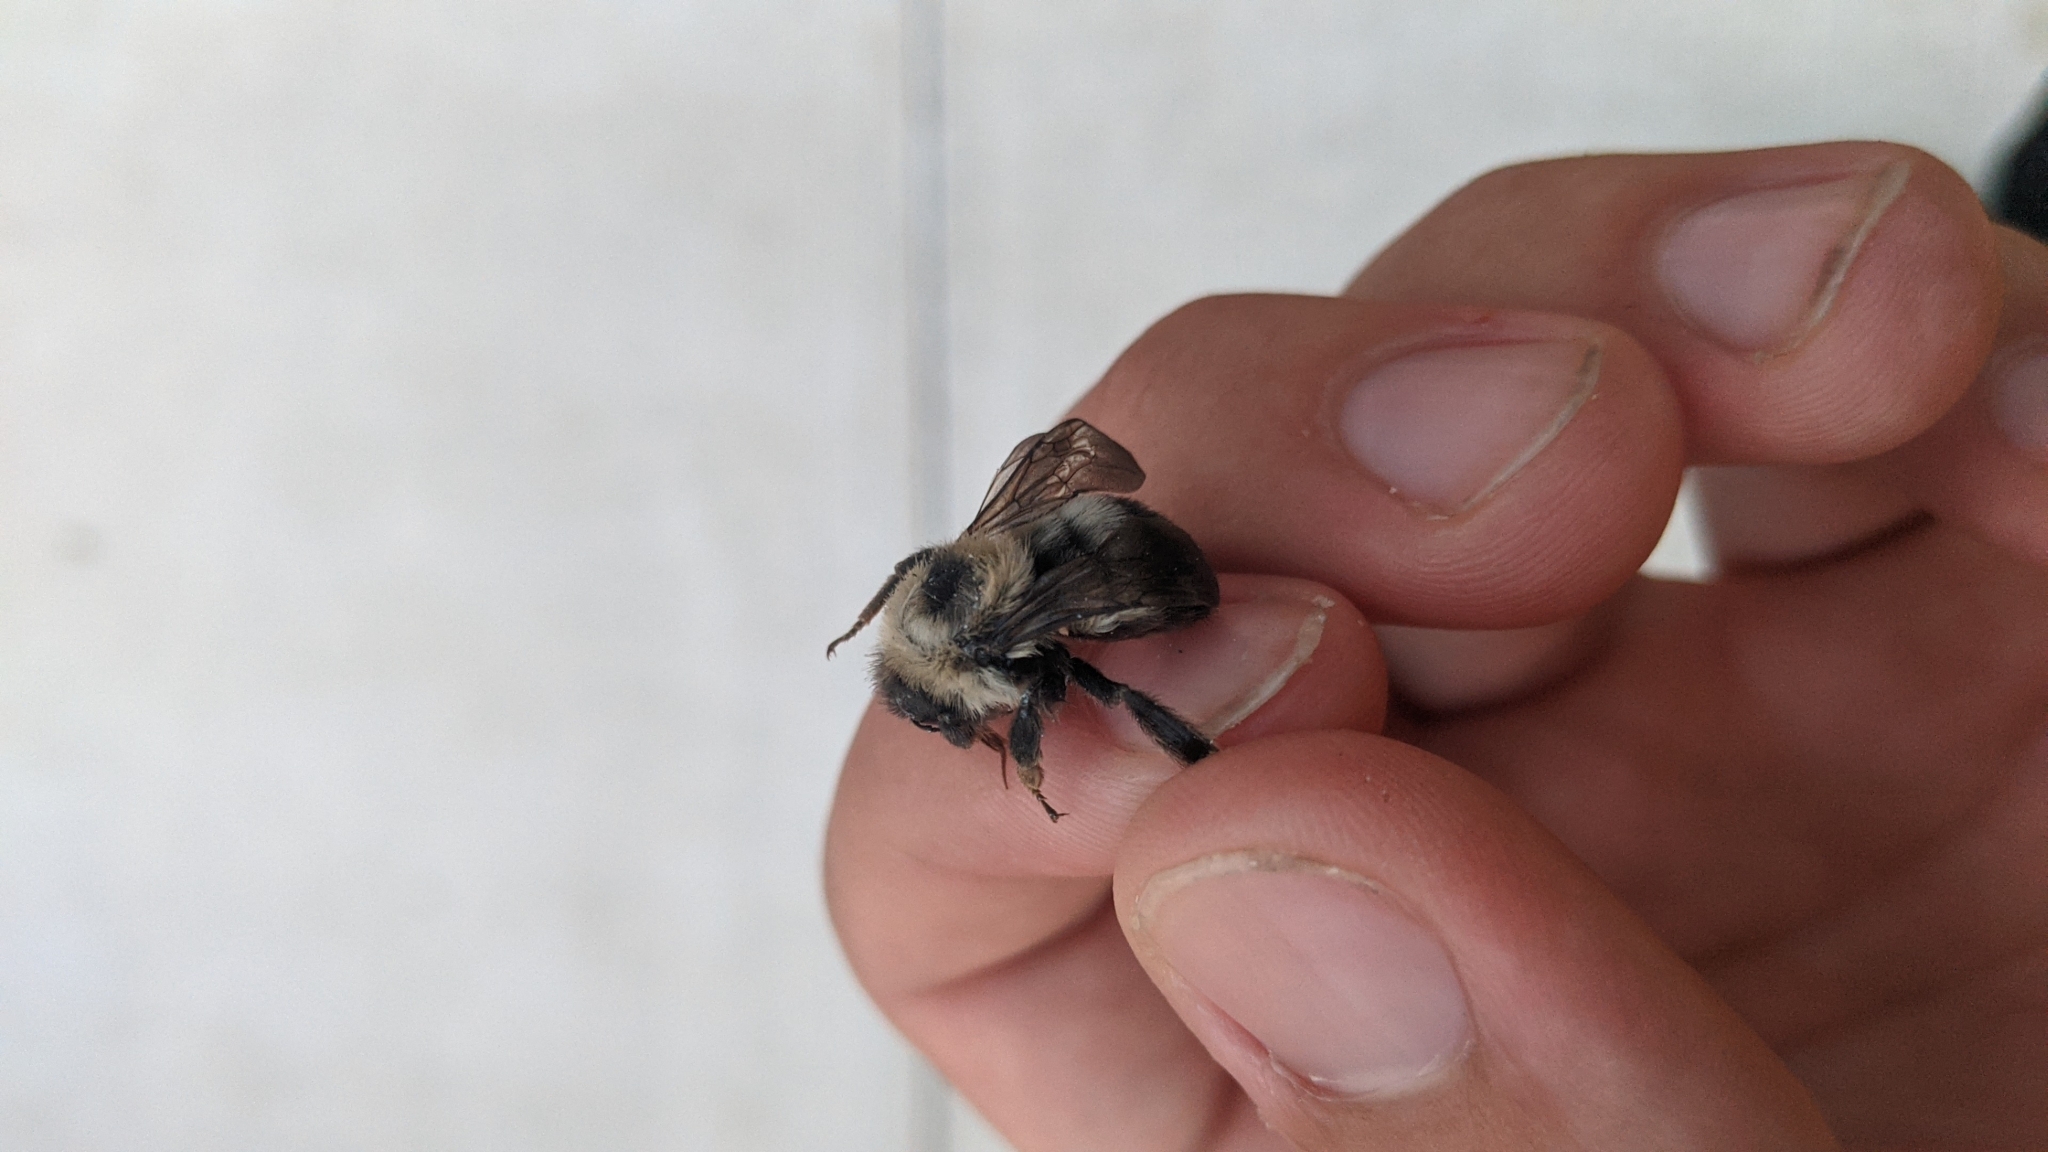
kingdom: Animalia
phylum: Arthropoda
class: Insecta
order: Hymenoptera
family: Apidae
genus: Bombus
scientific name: Bombus rufocinctus
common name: Red-belted bumble bee
